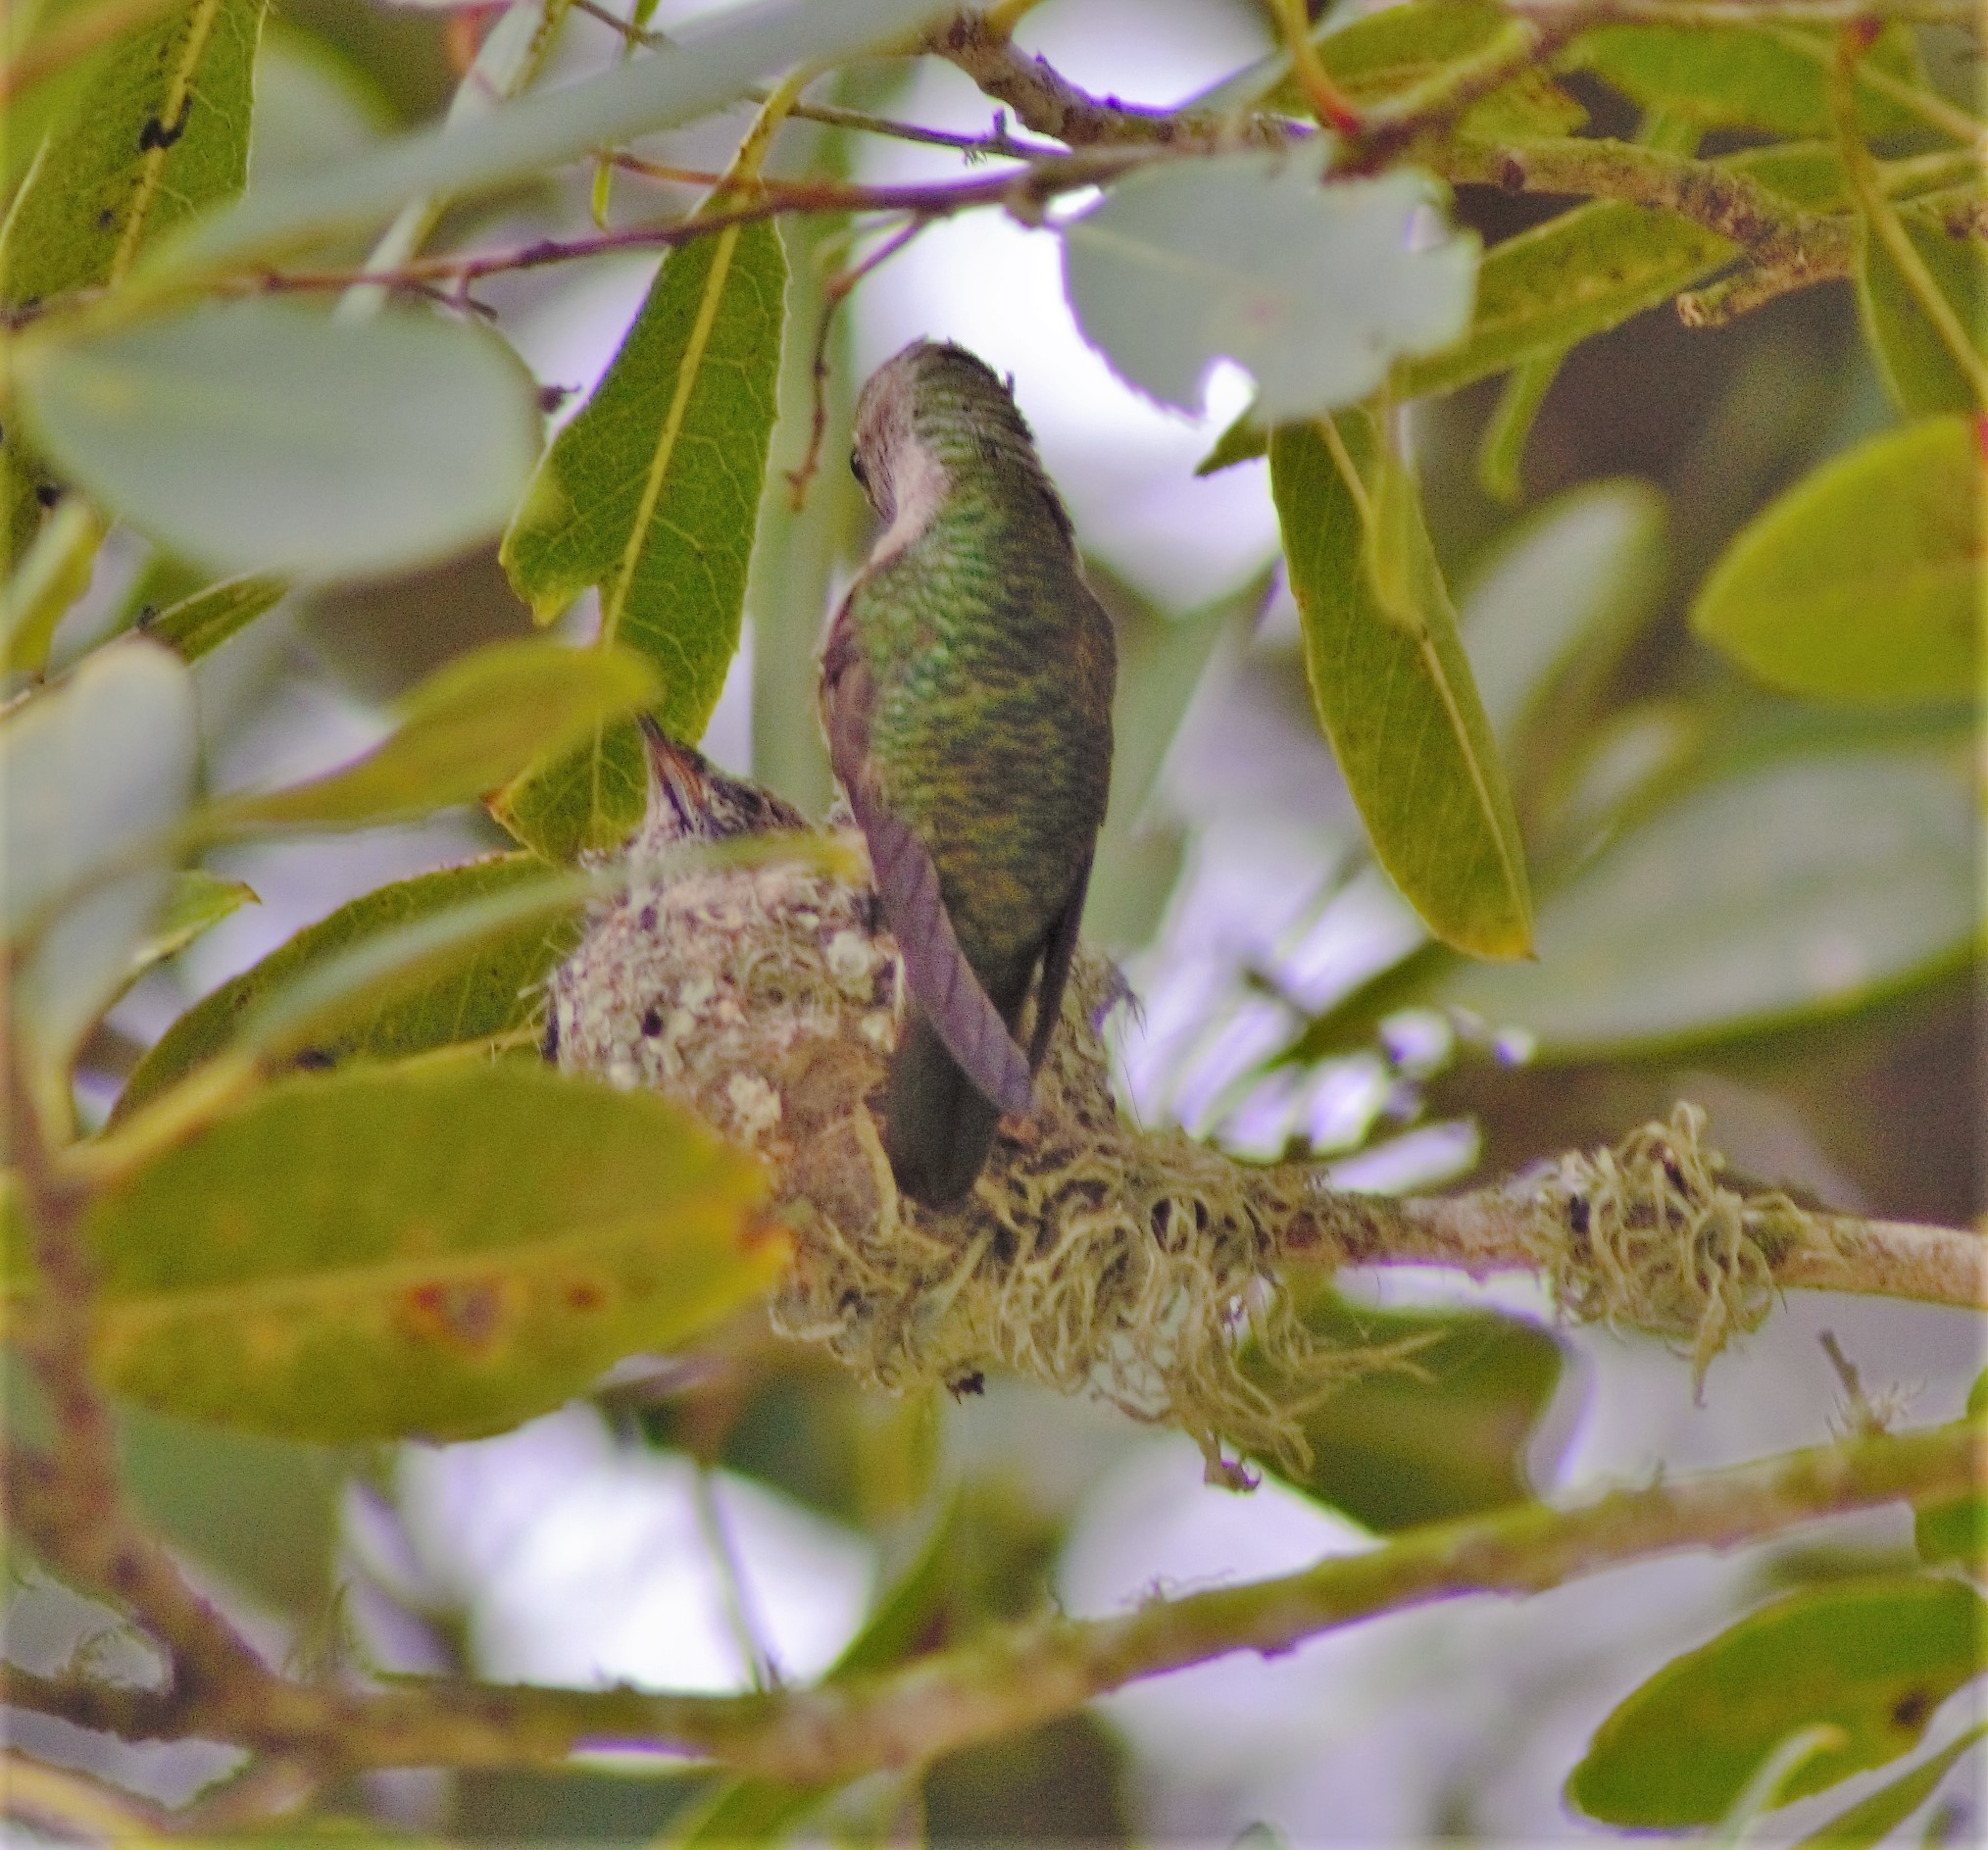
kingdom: Animalia
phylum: Chordata
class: Aves
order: Apodiformes
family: Trochilidae
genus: Calypte
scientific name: Calypte anna
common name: Anna's hummingbird
